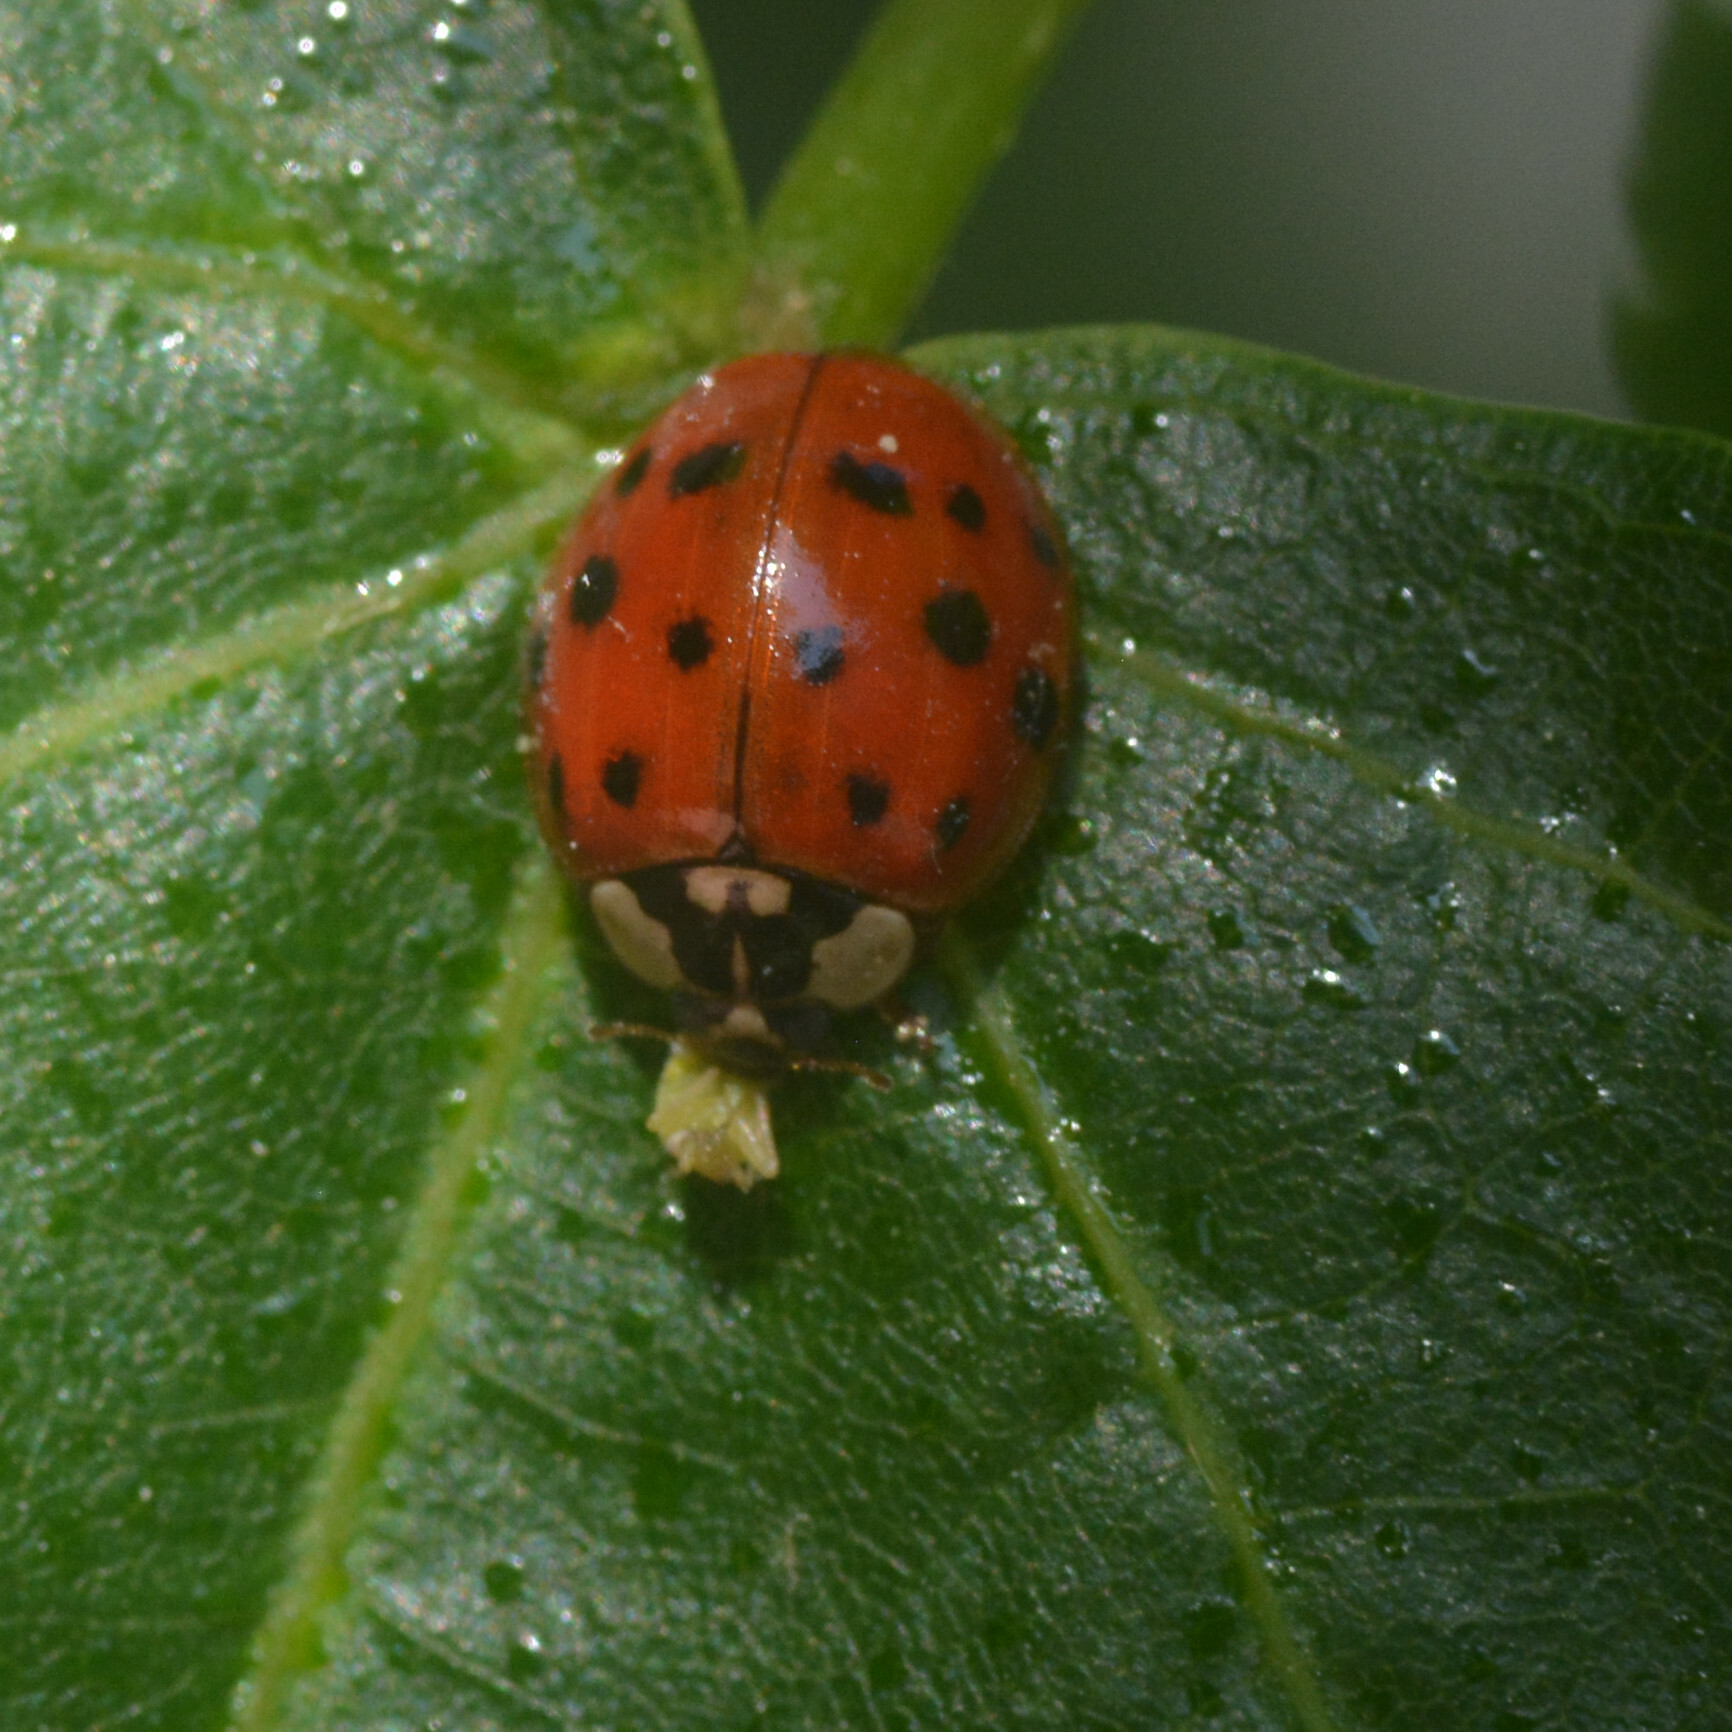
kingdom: Animalia
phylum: Arthropoda
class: Insecta
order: Coleoptera
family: Coccinellidae
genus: Harmonia
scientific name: Harmonia axyridis
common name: Harlequin ladybird
